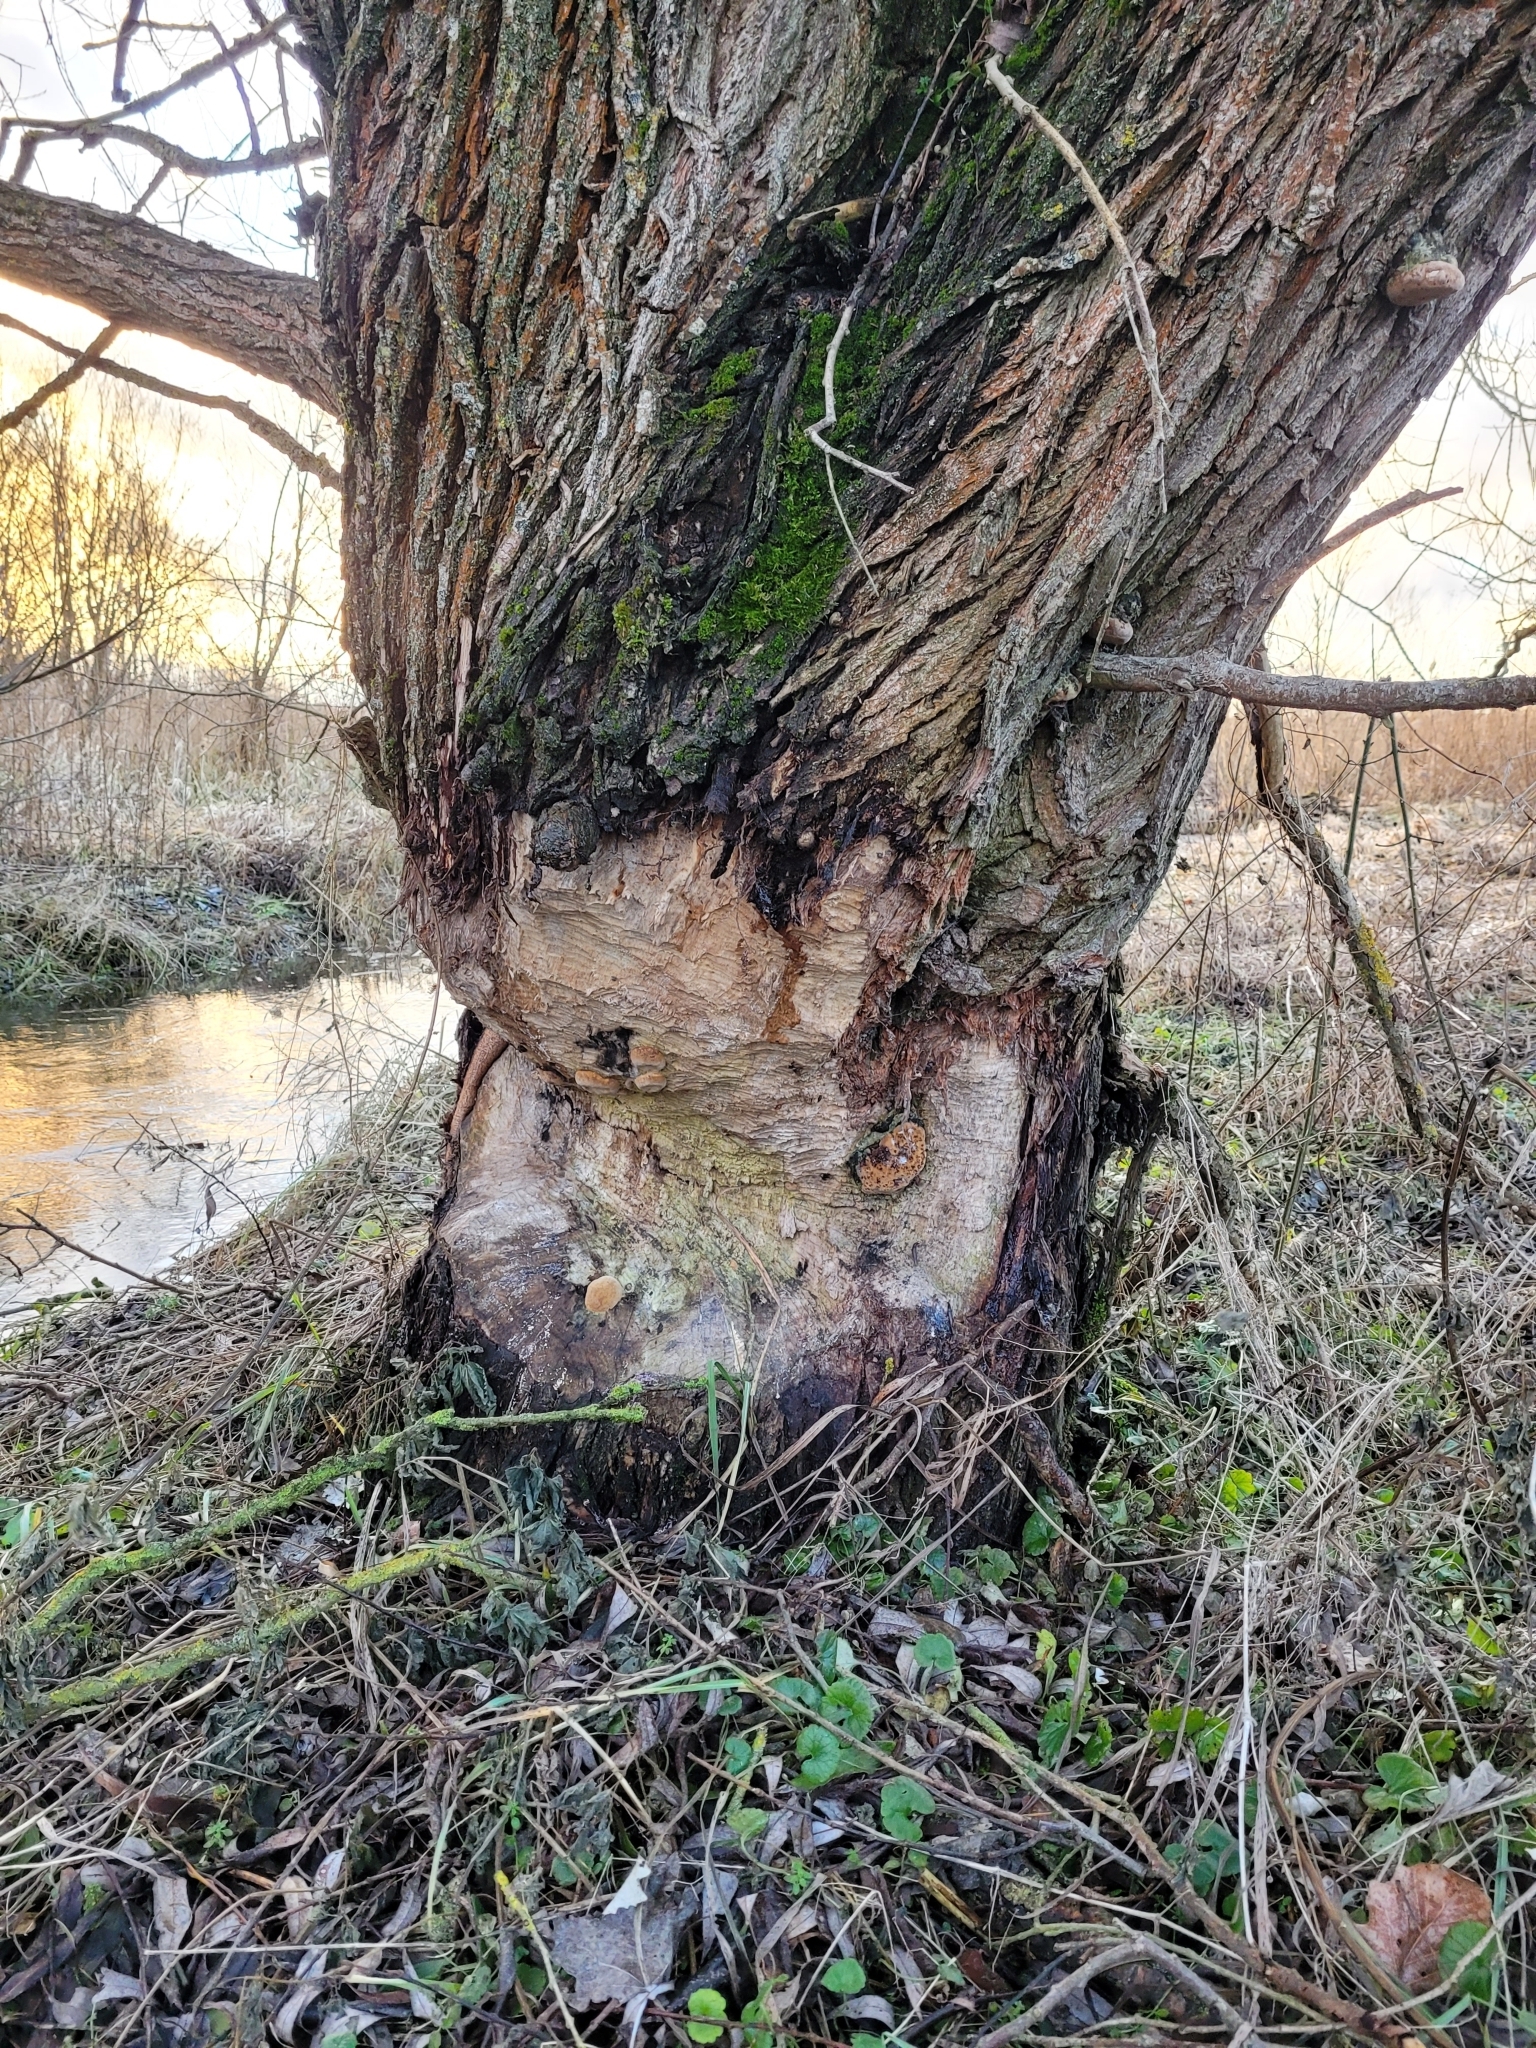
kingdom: Animalia
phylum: Chordata
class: Mammalia
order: Rodentia
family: Castoridae
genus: Castor
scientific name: Castor fiber
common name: Eurasian beaver
